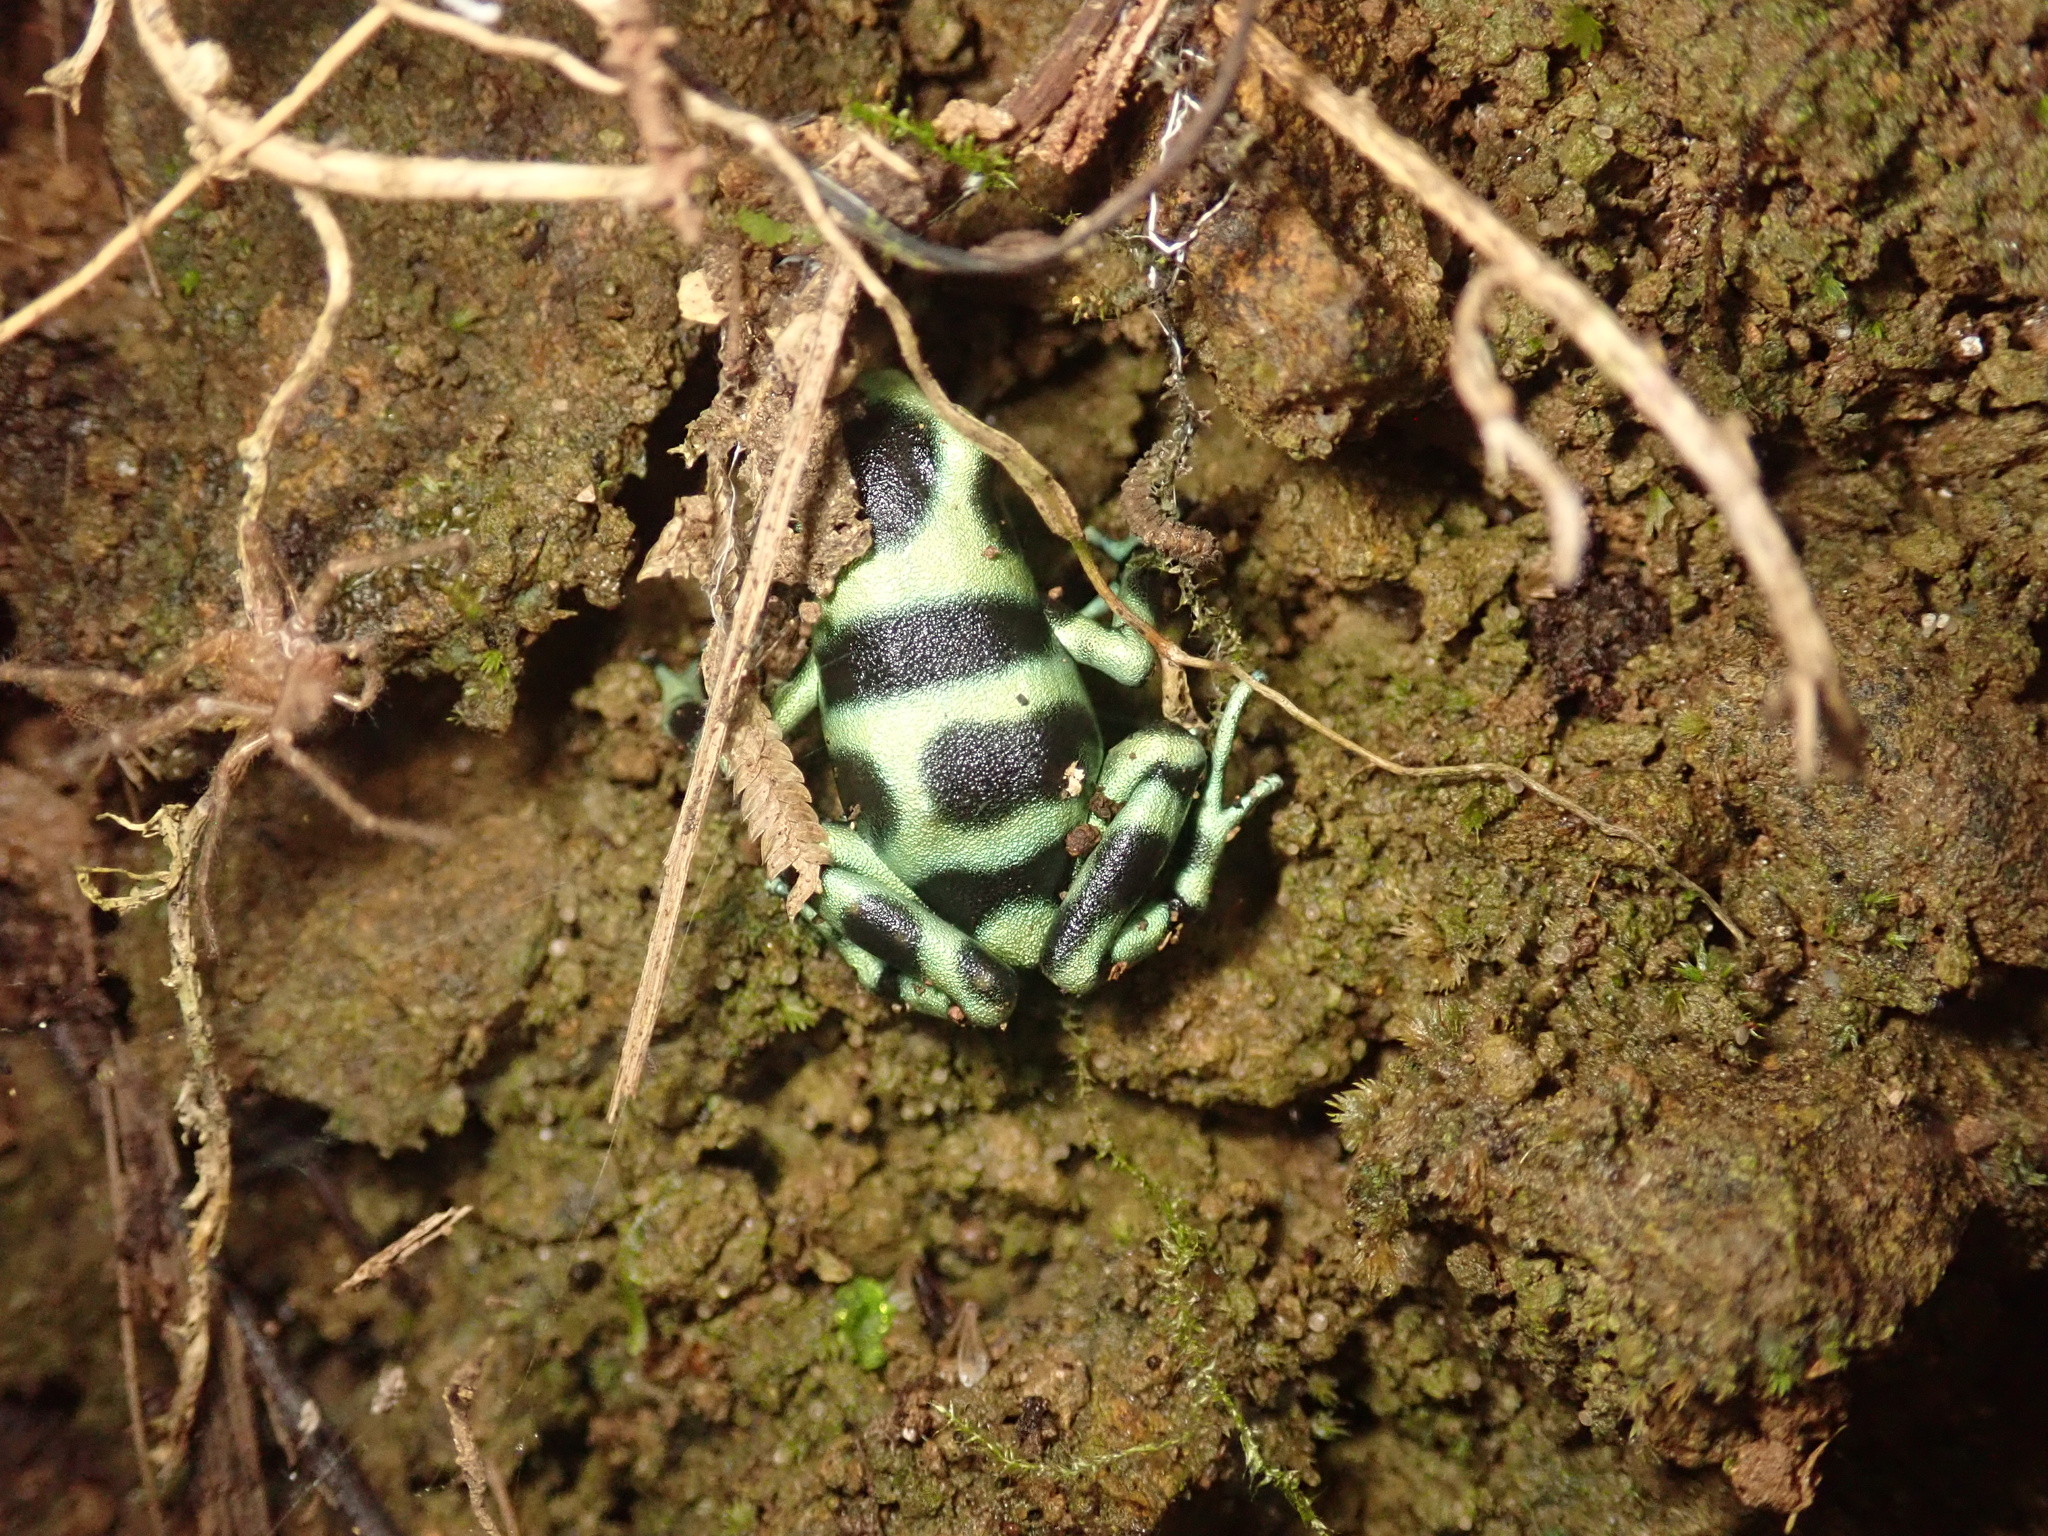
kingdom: Animalia
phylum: Chordata
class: Amphibia
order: Anura
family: Dendrobatidae
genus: Dendrobates
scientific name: Dendrobates auratus
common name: Green and black poison dart frog
